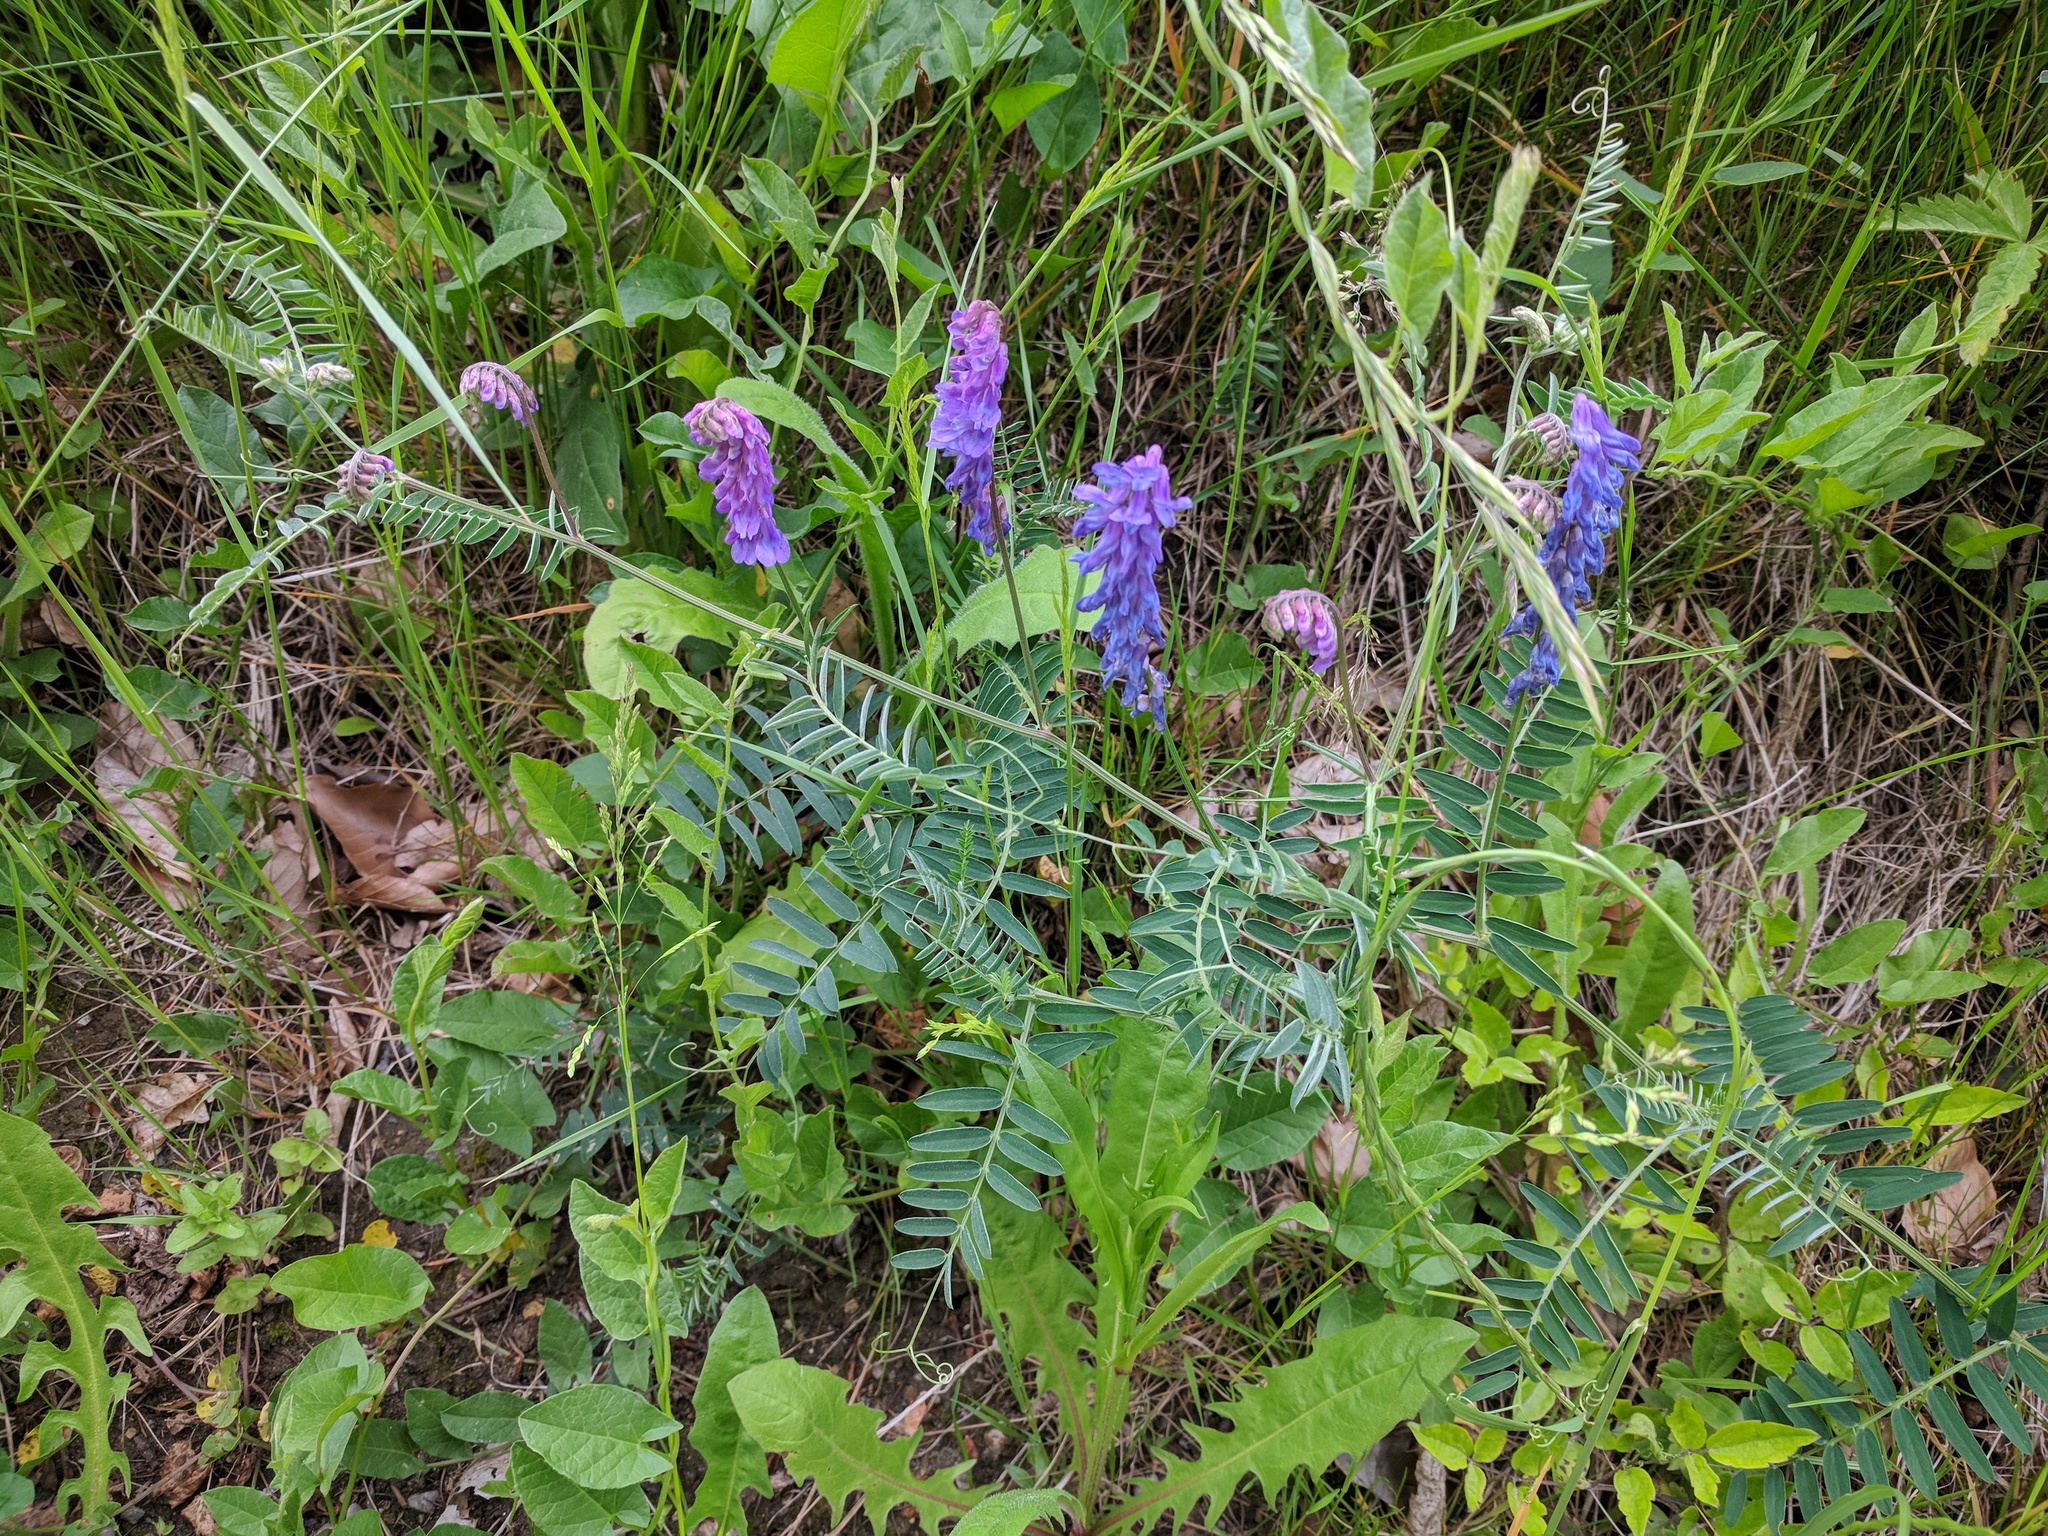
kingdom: Plantae
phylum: Tracheophyta
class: Magnoliopsida
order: Fabales
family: Fabaceae
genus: Vicia
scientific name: Vicia cracca
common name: Bird vetch
